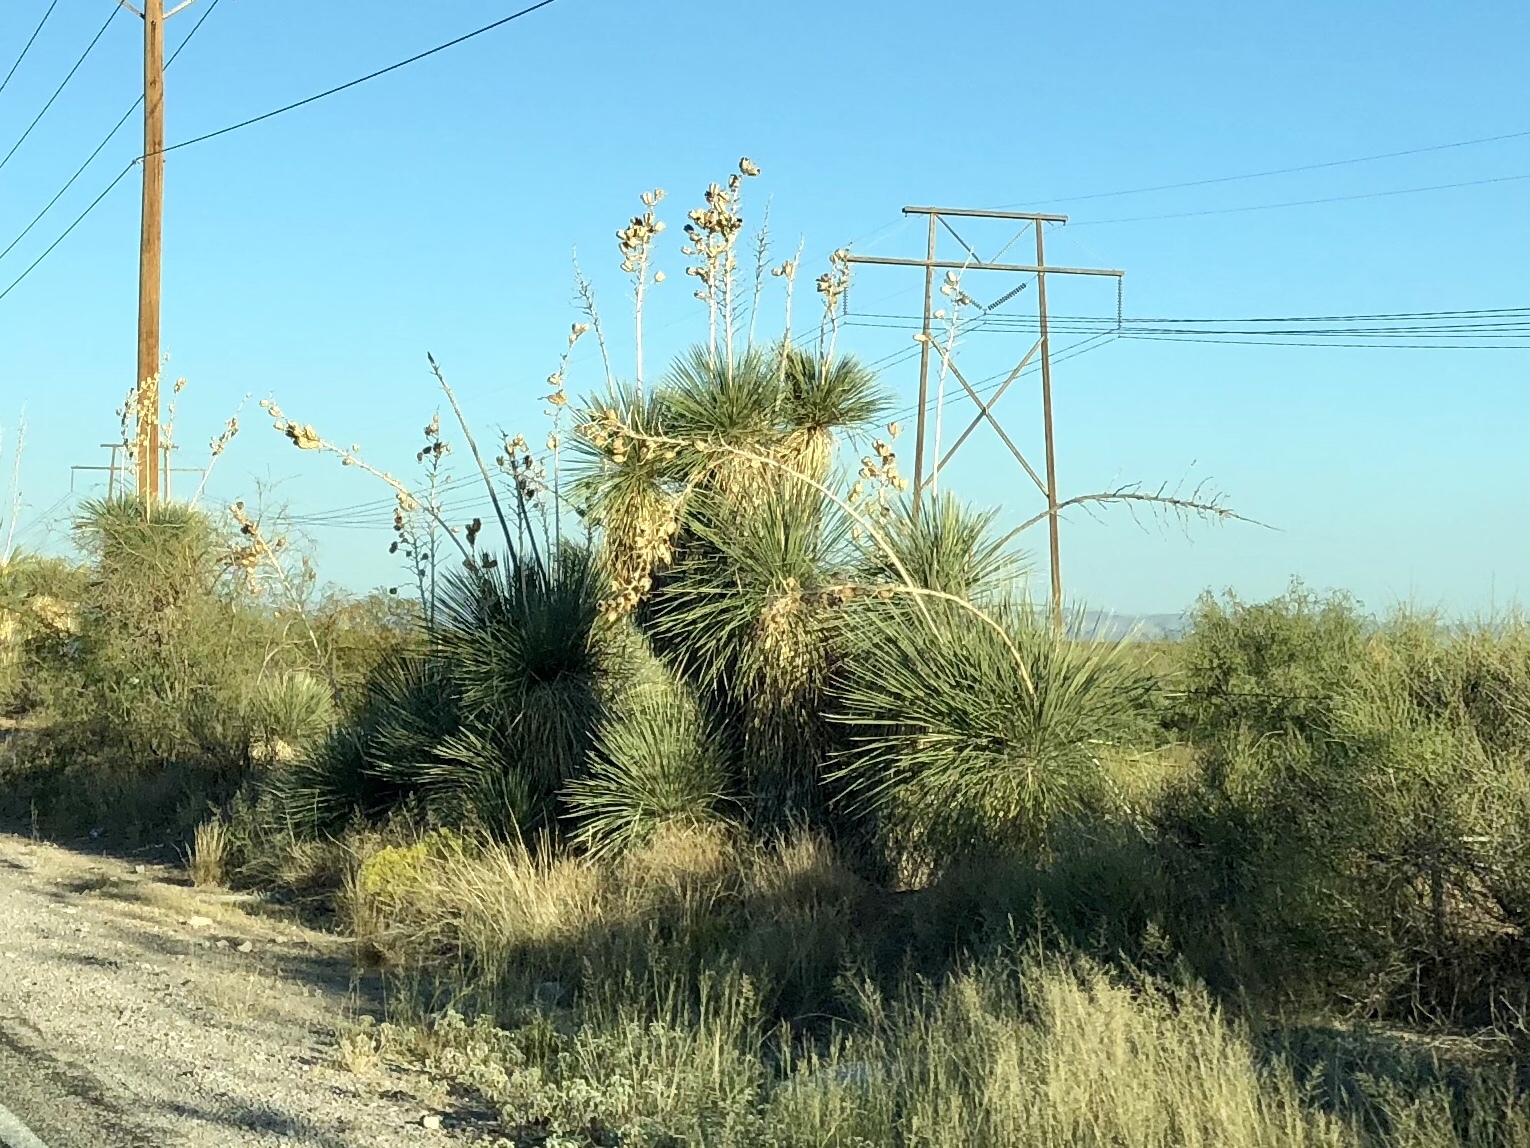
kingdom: Plantae
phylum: Tracheophyta
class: Liliopsida
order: Asparagales
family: Asparagaceae
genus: Yucca
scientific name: Yucca elata
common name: Palmella
